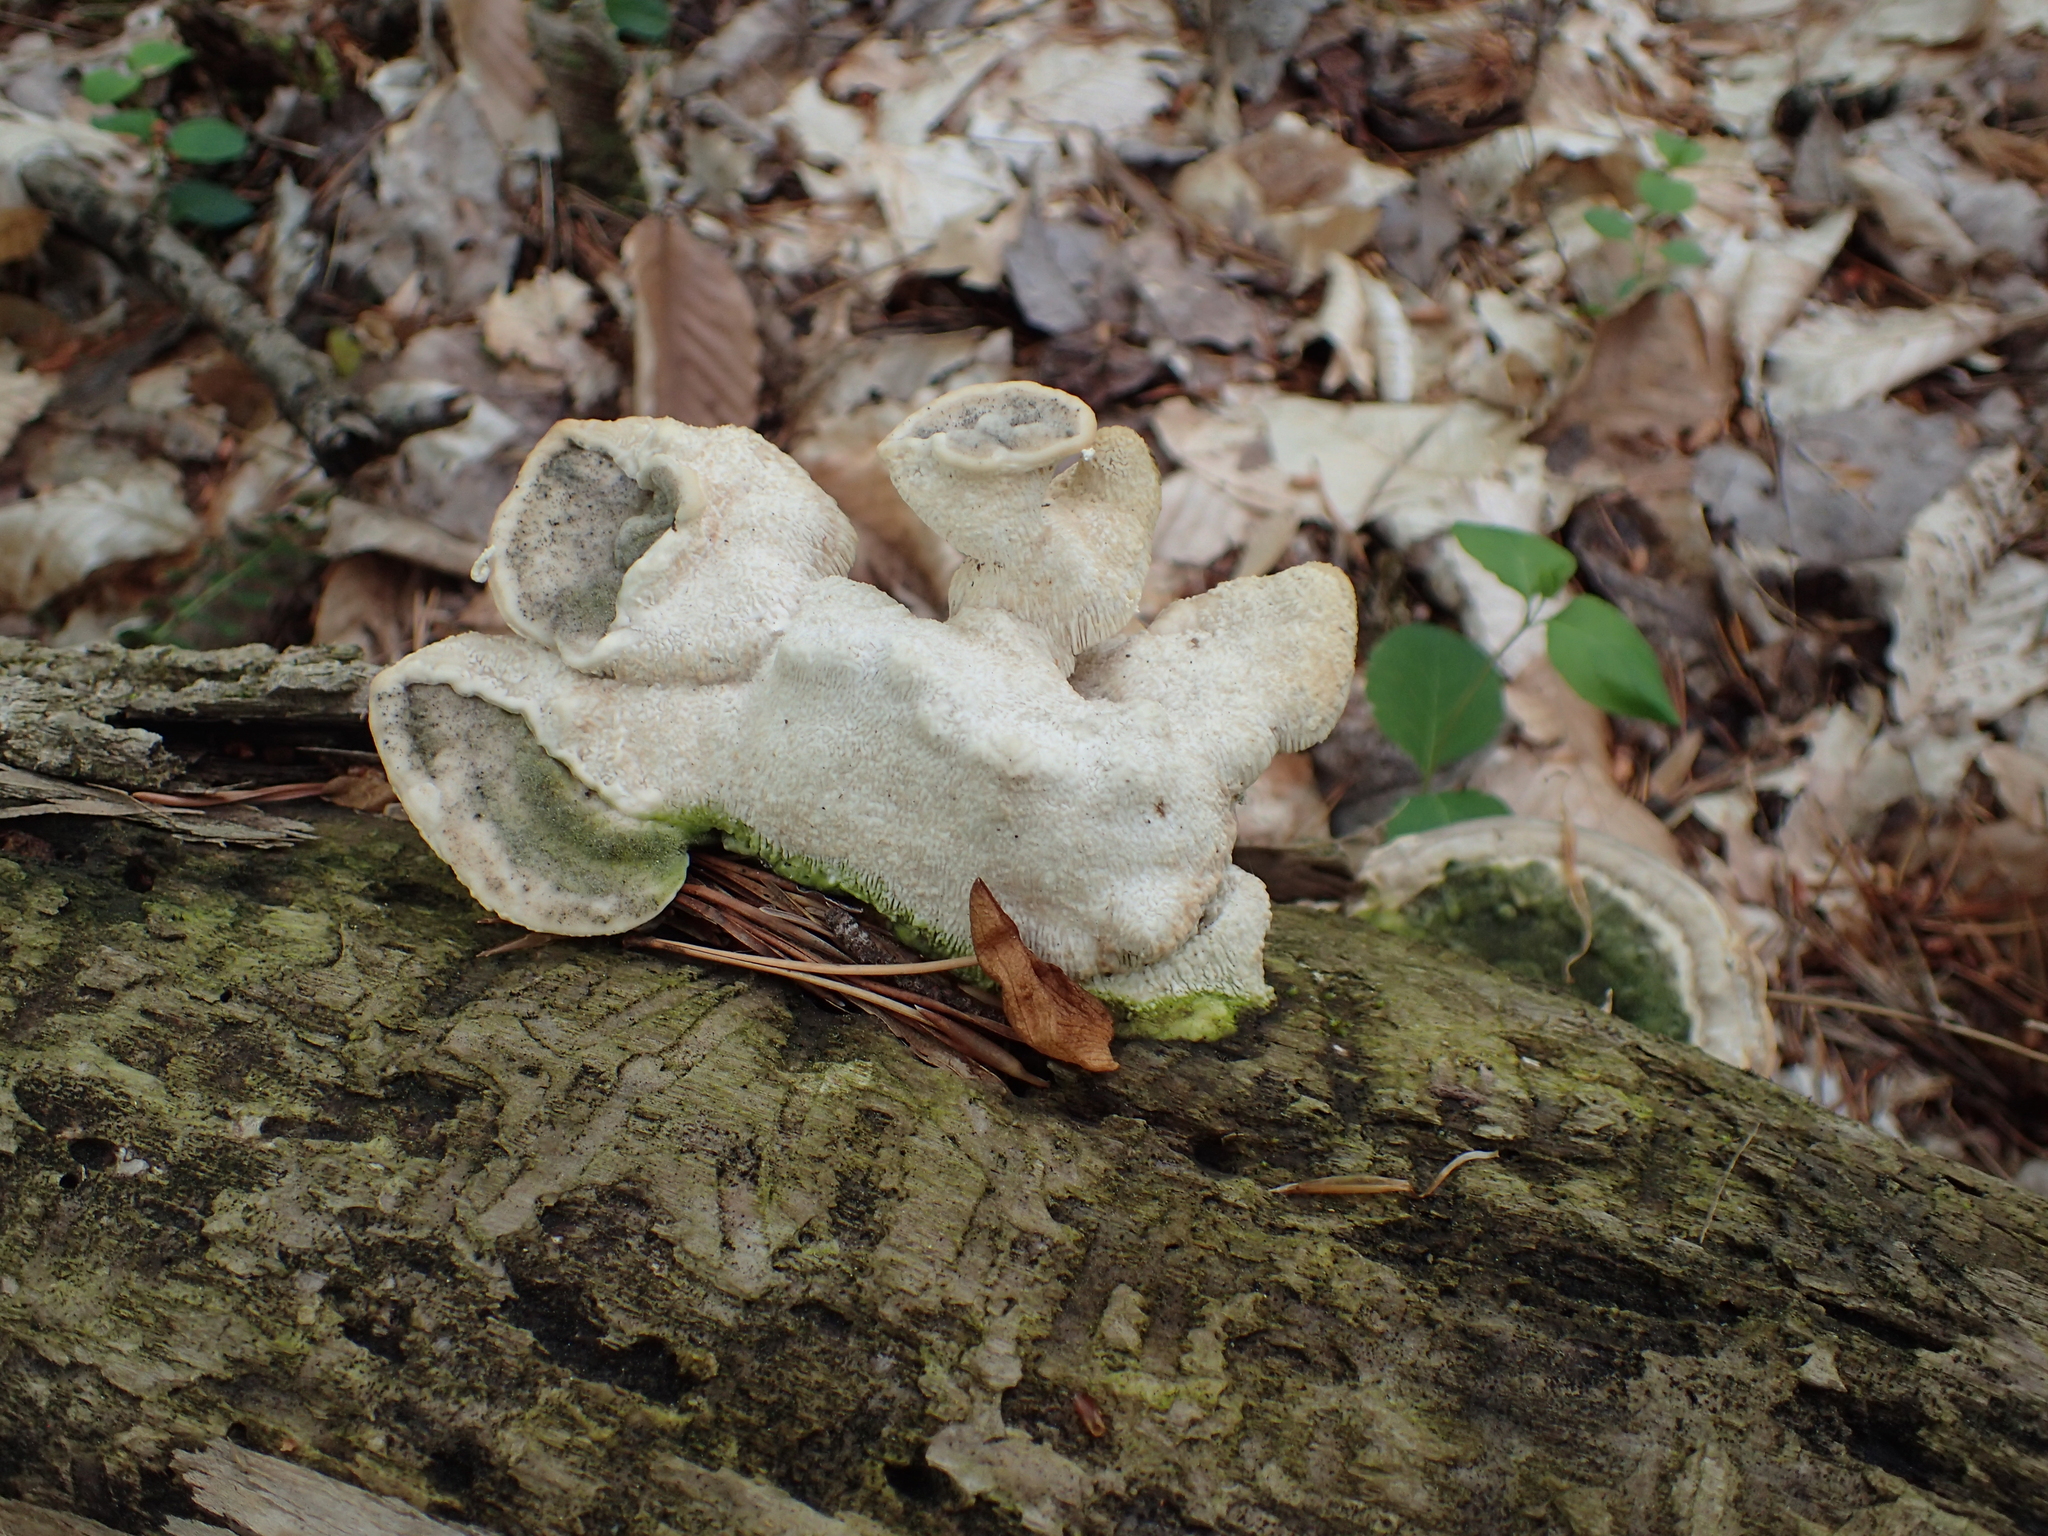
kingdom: Fungi
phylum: Basidiomycota
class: Agaricomycetes
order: Polyporales
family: Polyporaceae
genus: Trametes
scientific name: Trametes
